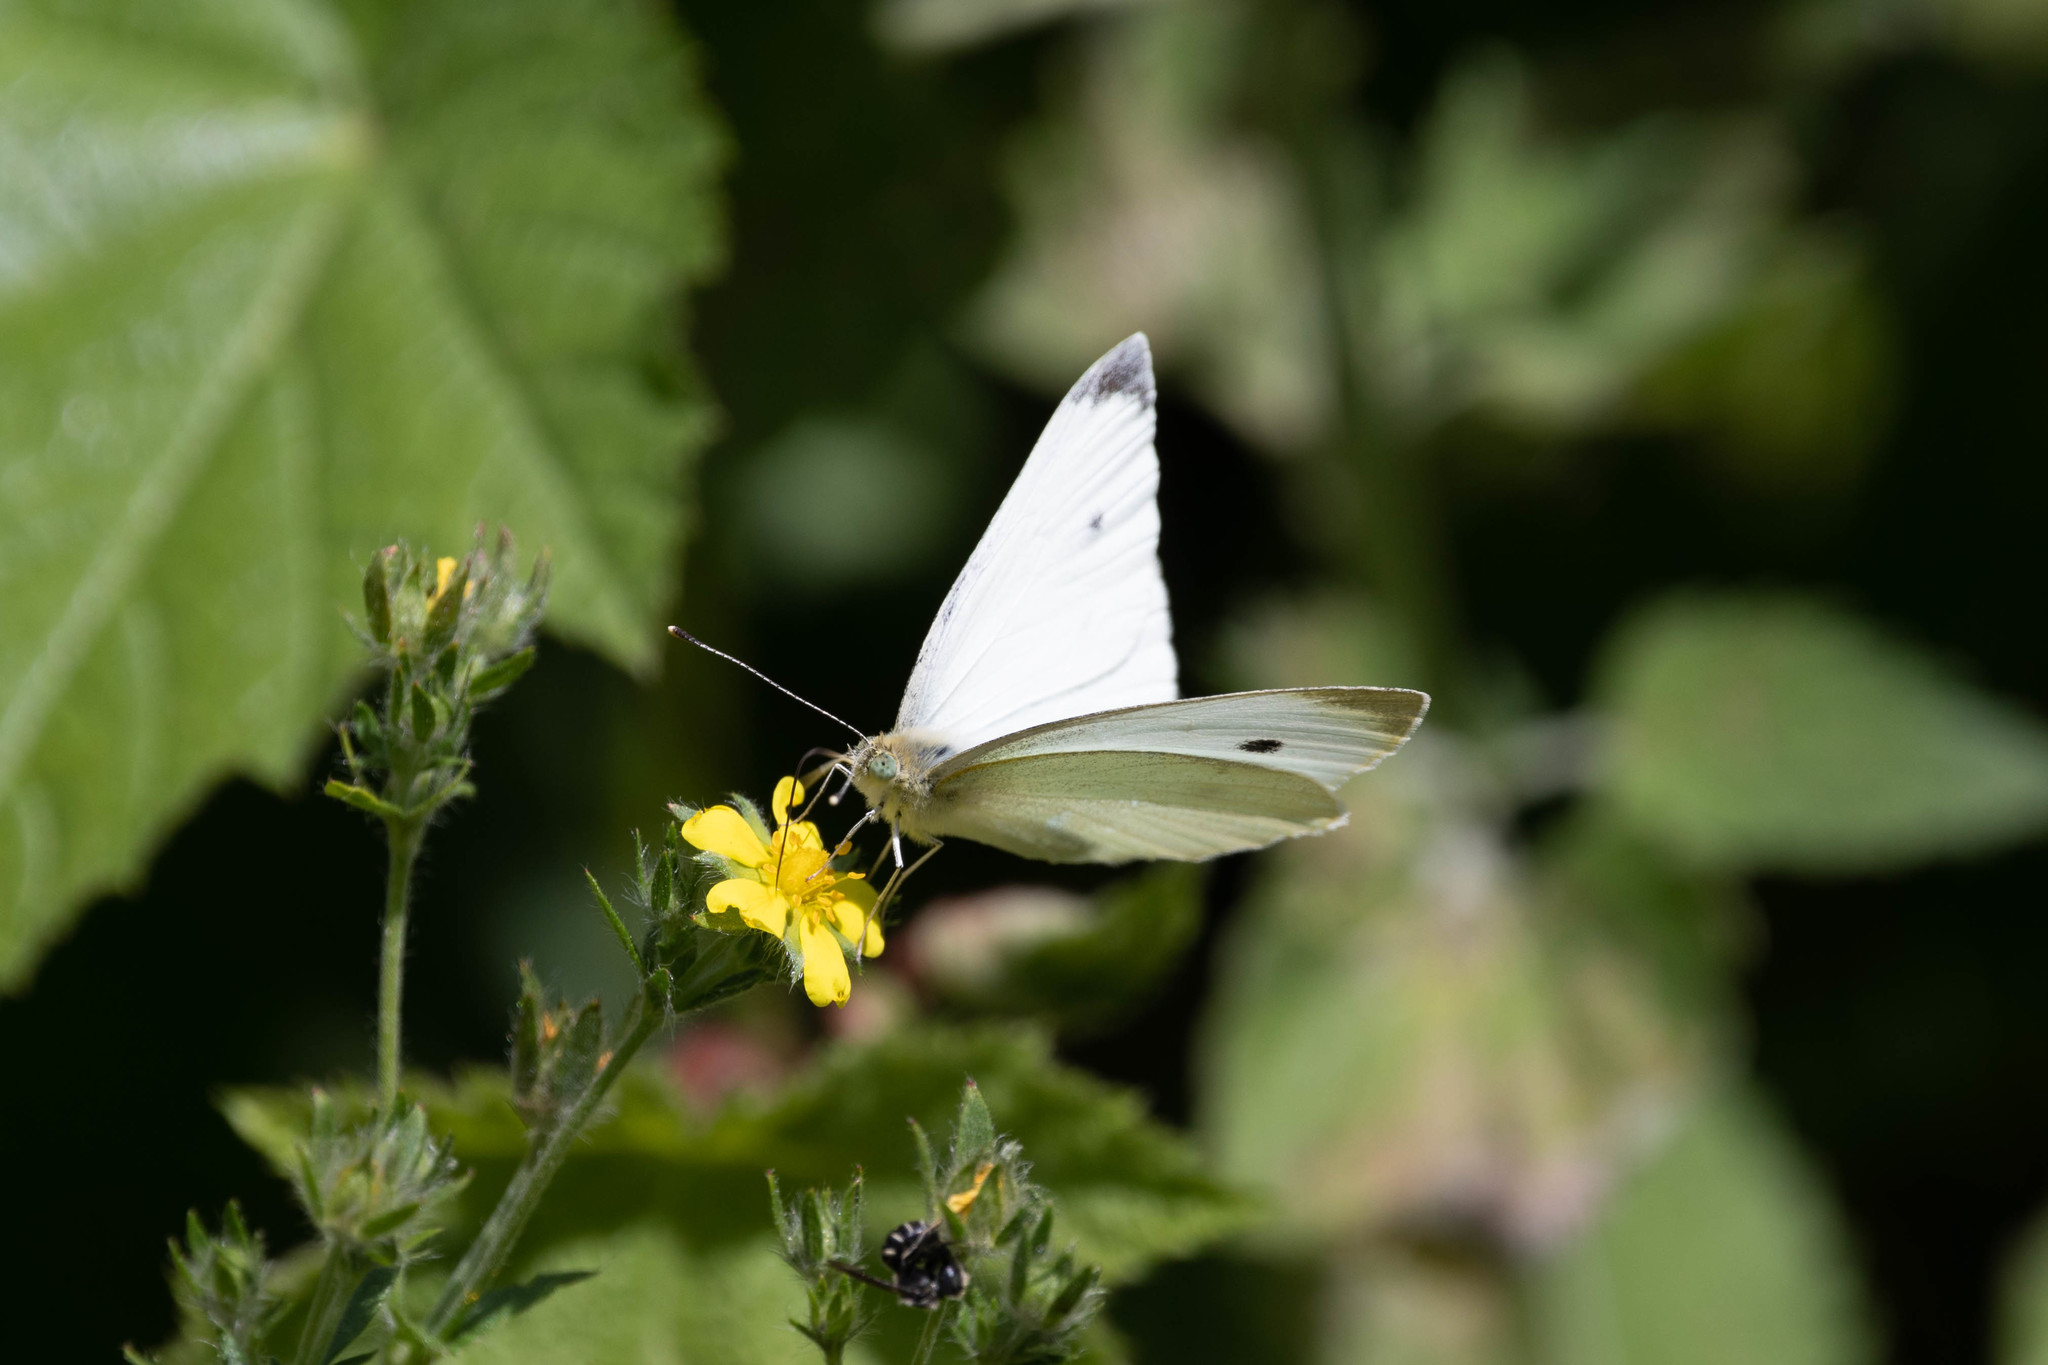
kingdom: Animalia
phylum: Arthropoda
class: Insecta
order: Lepidoptera
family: Pieridae
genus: Pieris
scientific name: Pieris rapae
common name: Small white
